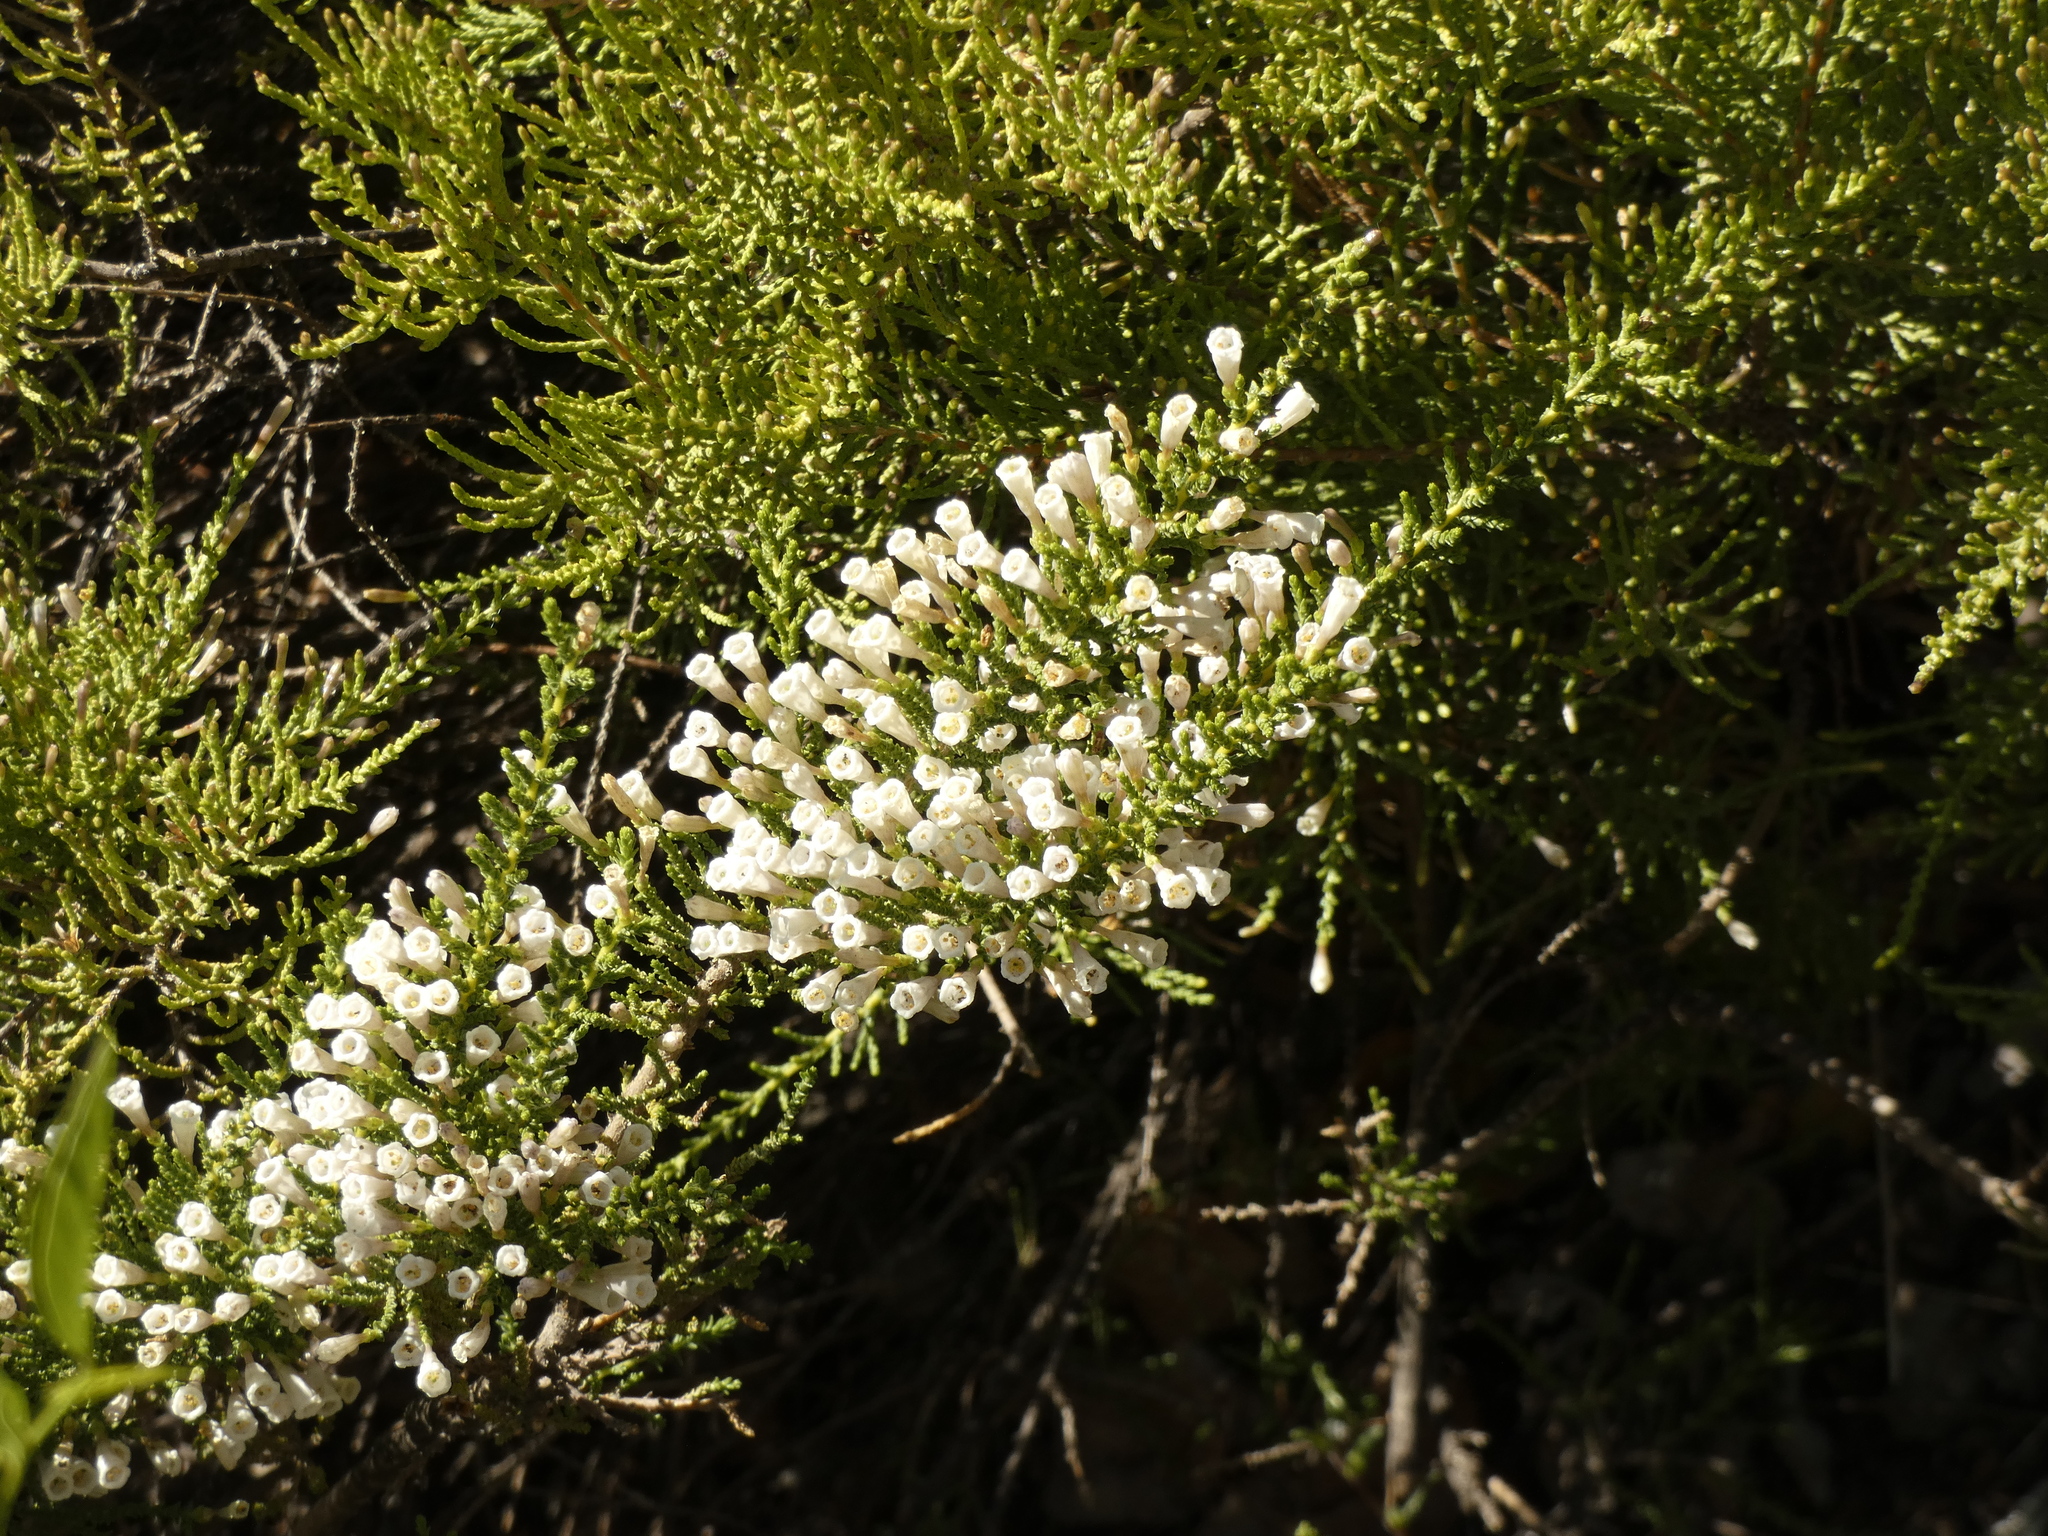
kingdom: Plantae
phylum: Tracheophyta
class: Magnoliopsida
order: Solanales
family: Solanaceae
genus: Fabiana
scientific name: Fabiana imbricata
